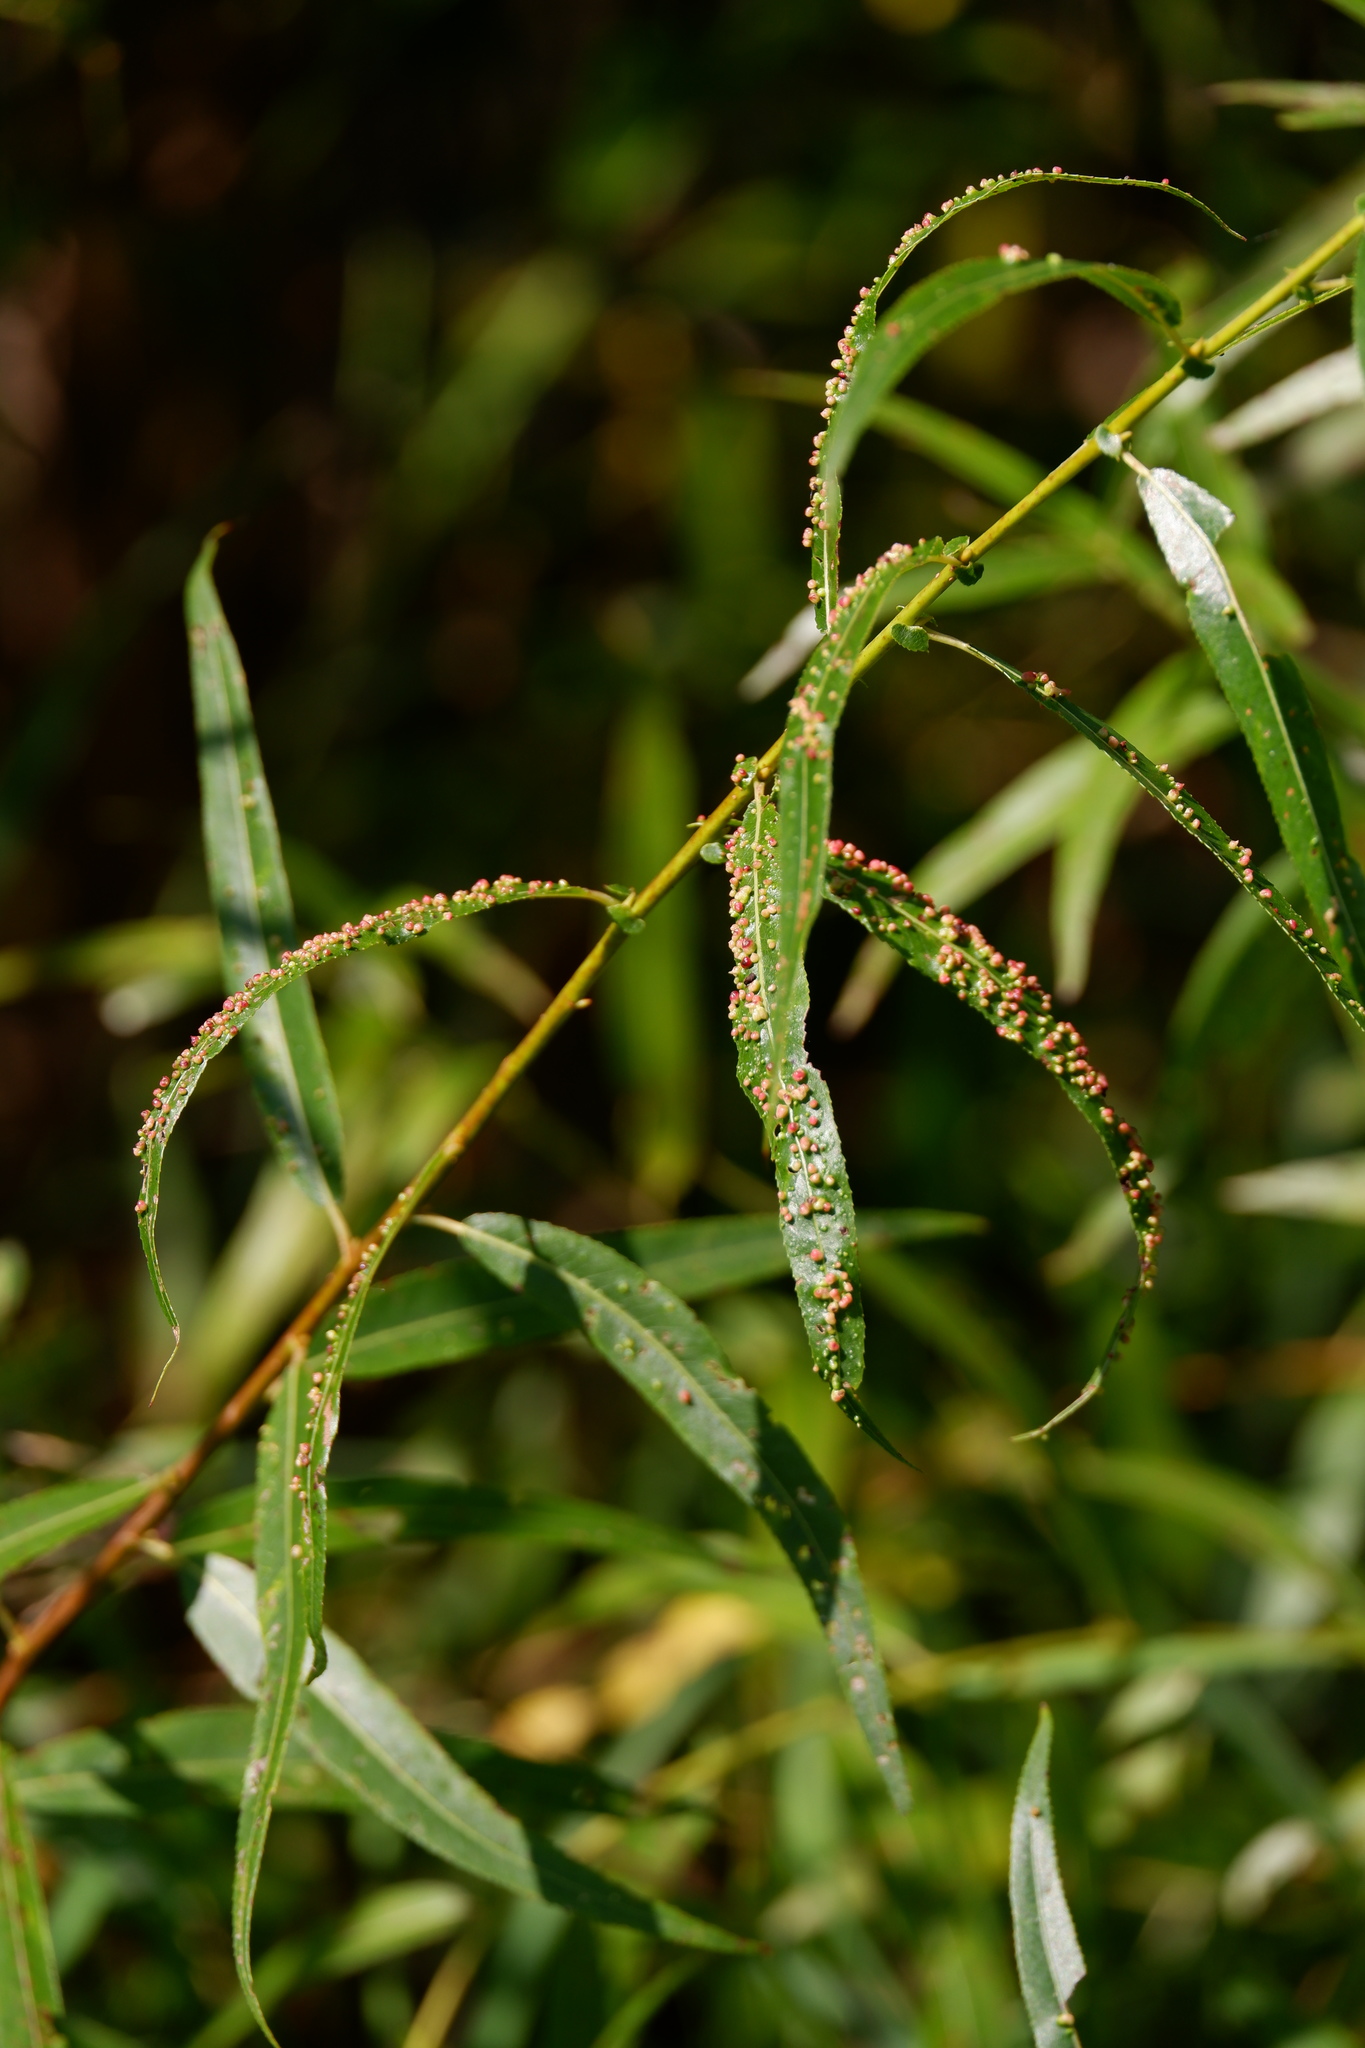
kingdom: Animalia
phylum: Arthropoda
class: Arachnida
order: Trombidiformes
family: Eriophyidae
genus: Aculus
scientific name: Aculus tetanothrix
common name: Willow bead gall mite
